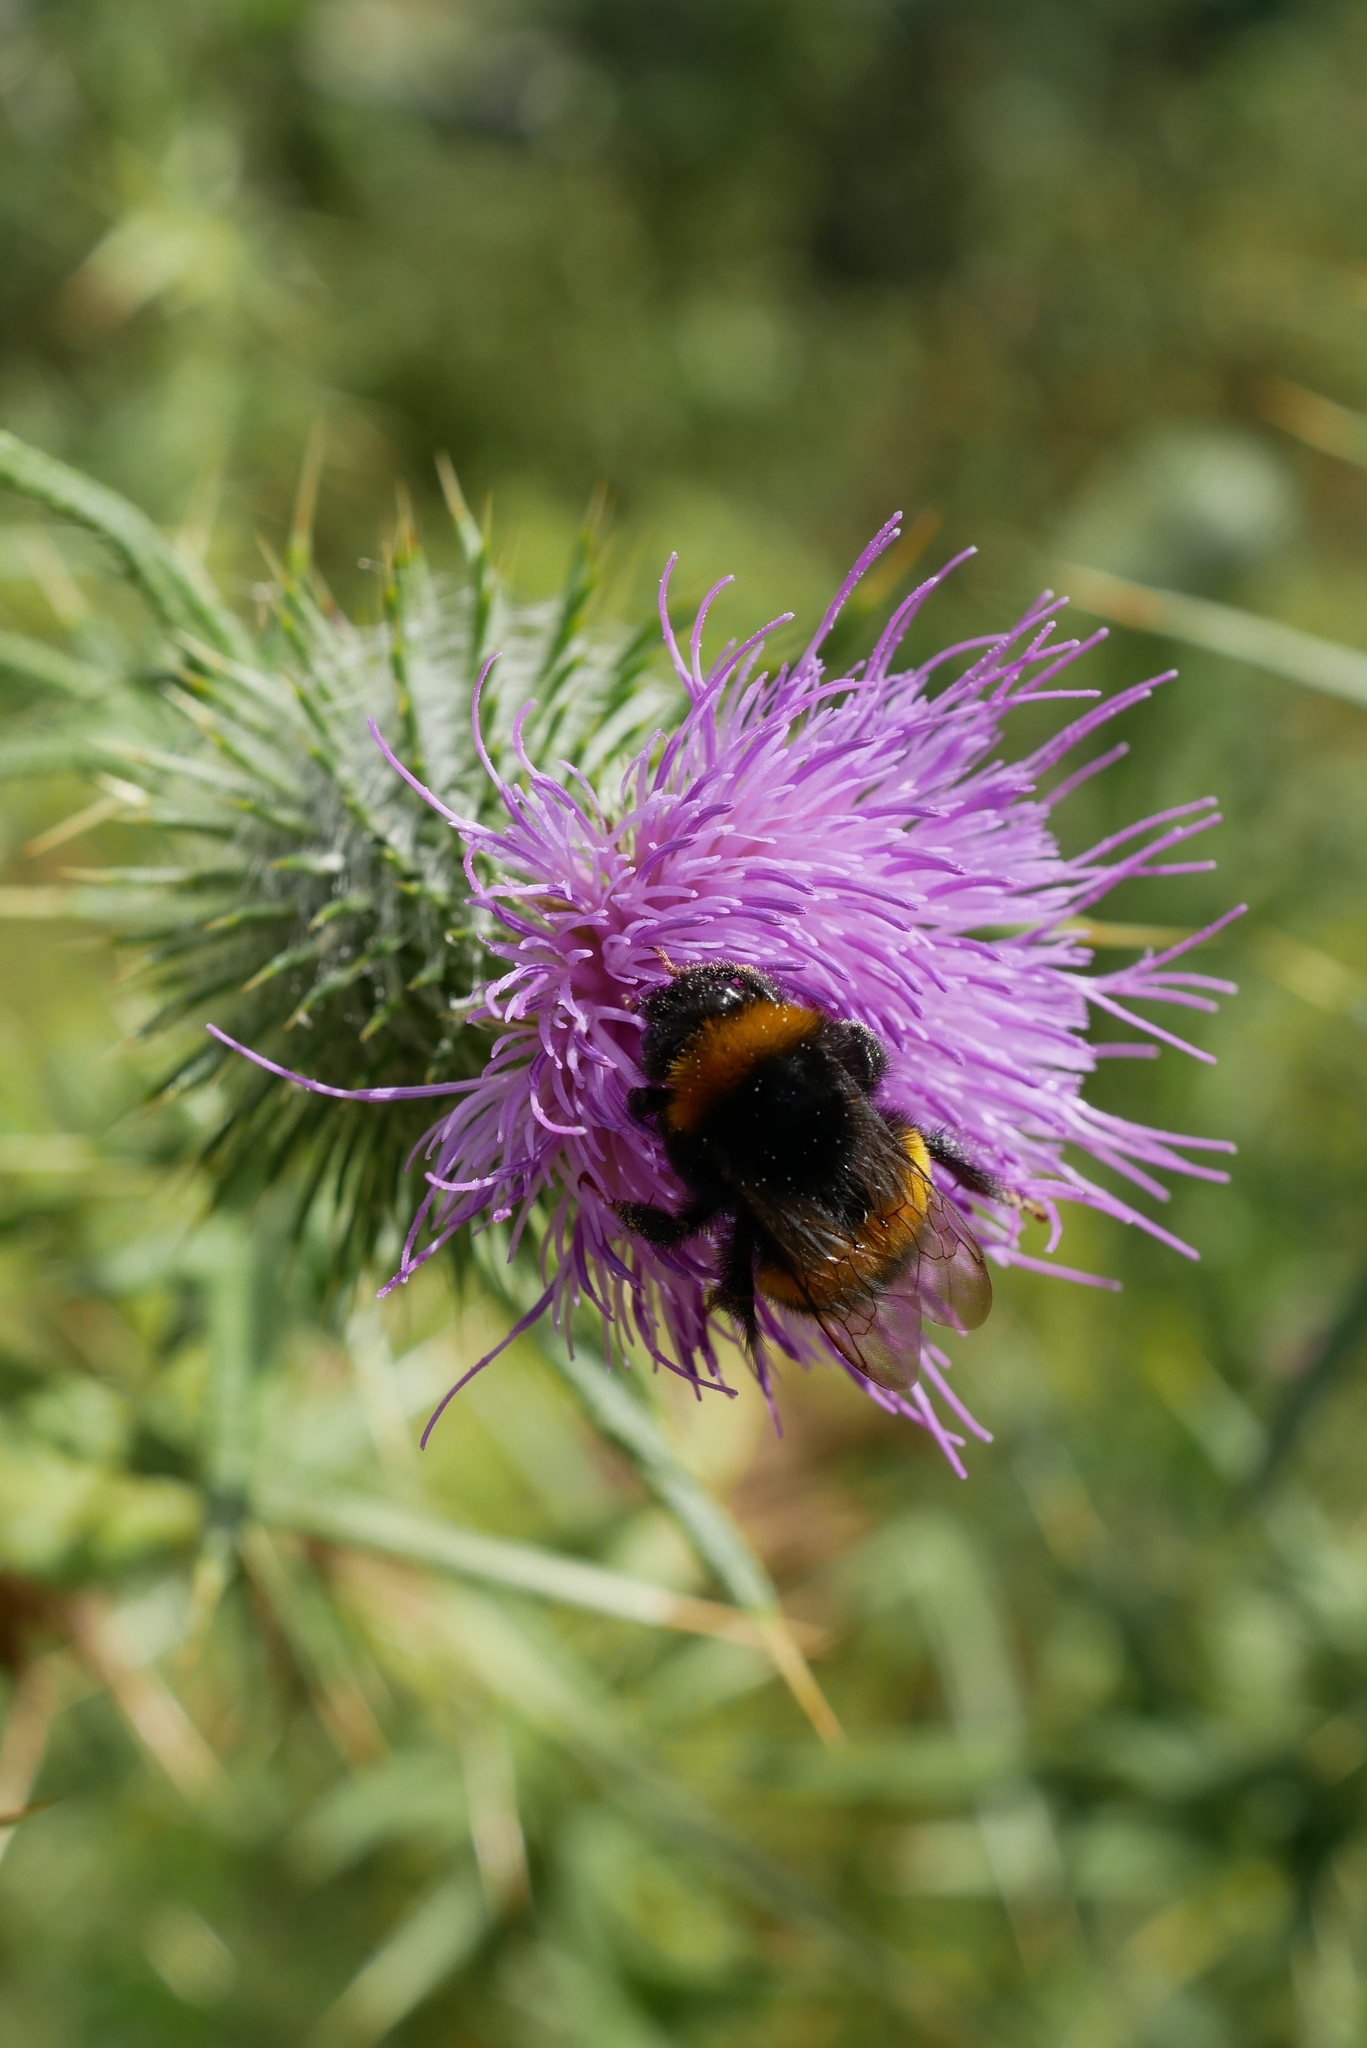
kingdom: Animalia
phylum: Arthropoda
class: Insecta
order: Hymenoptera
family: Apidae
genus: Bombus
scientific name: Bombus terrestris
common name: Buff-tailed bumblebee
